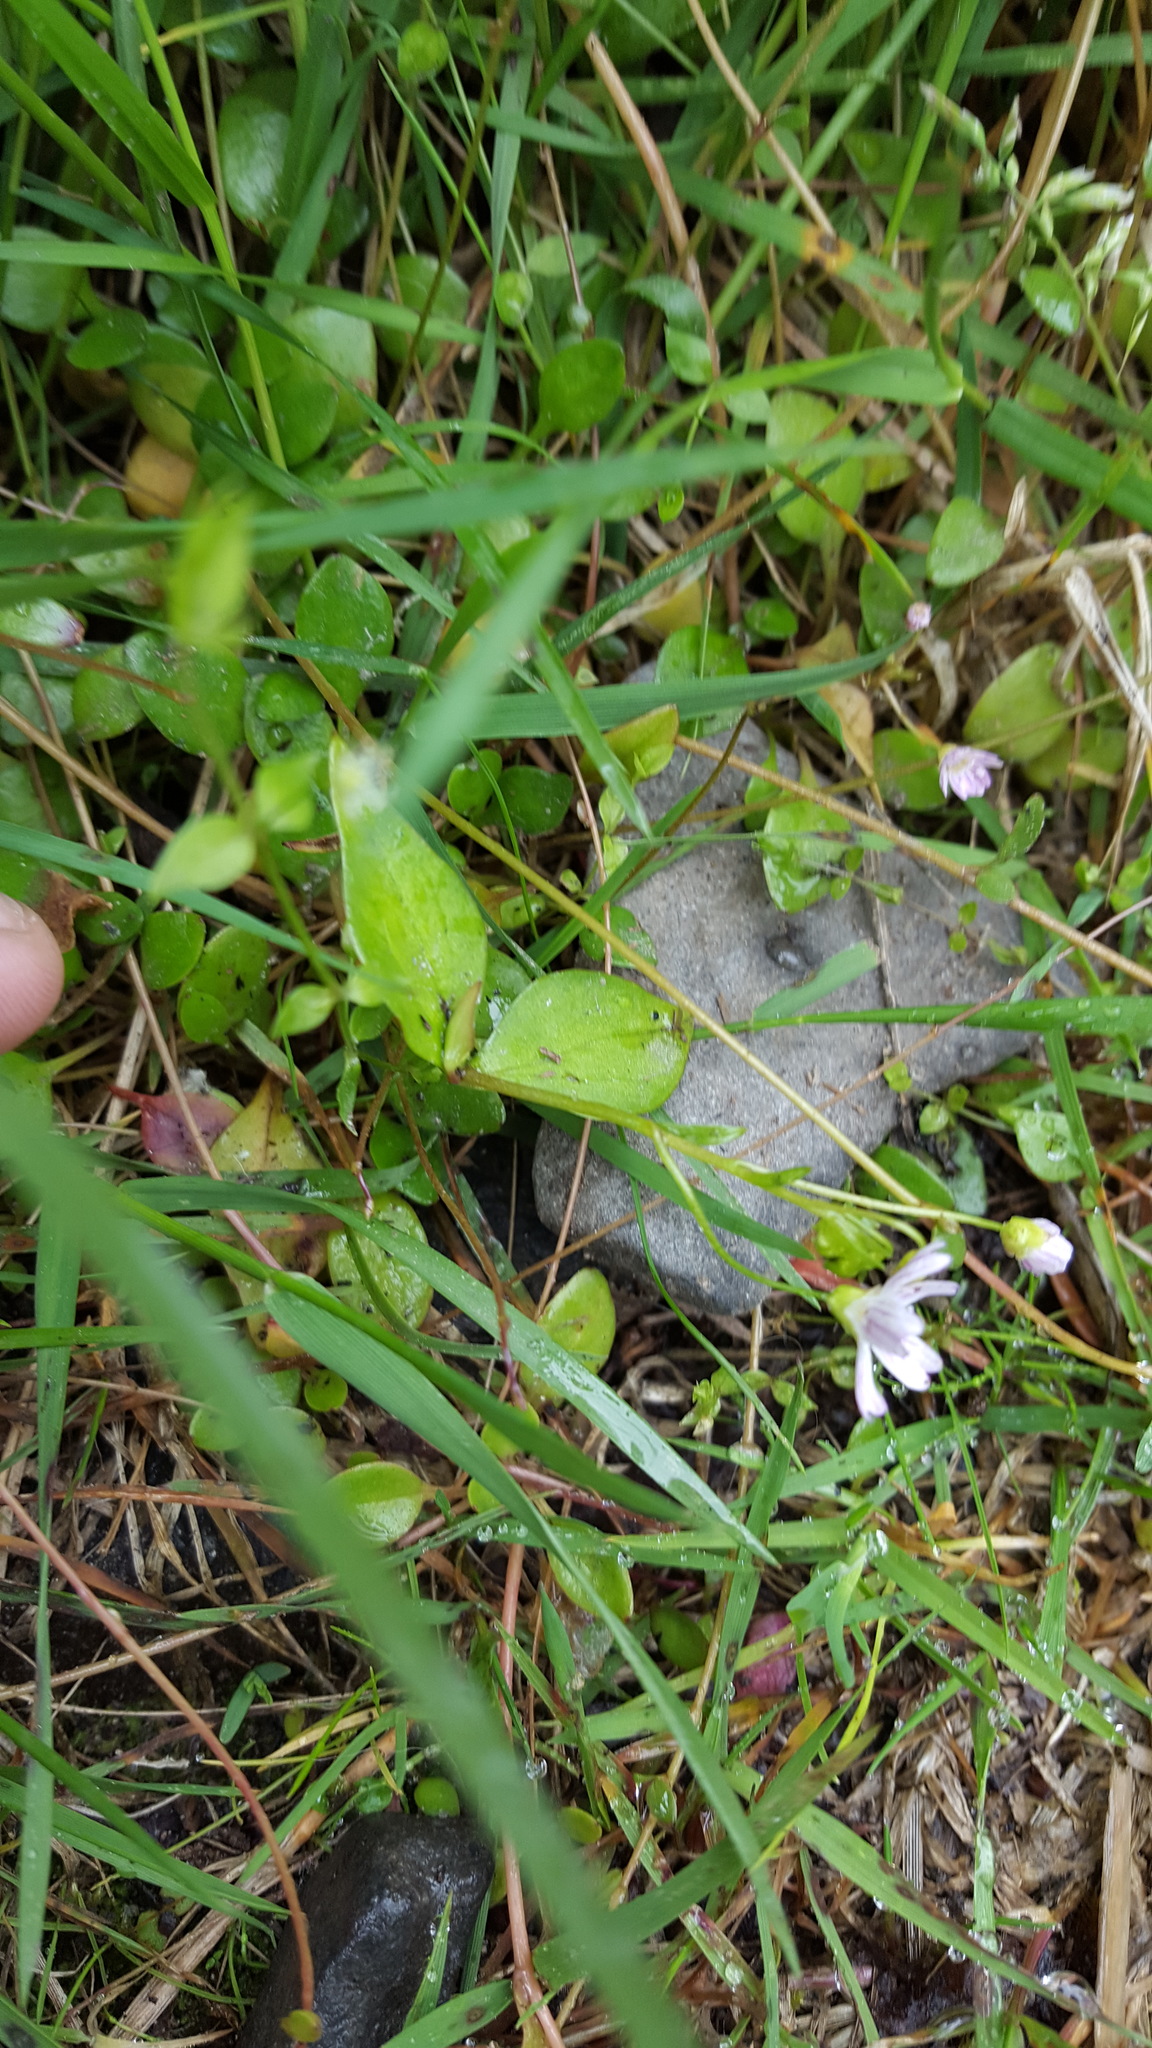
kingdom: Plantae
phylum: Tracheophyta
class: Magnoliopsida
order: Caryophyllales
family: Montiaceae
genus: Claytonia
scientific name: Claytonia sibirica
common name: Pink purslane
